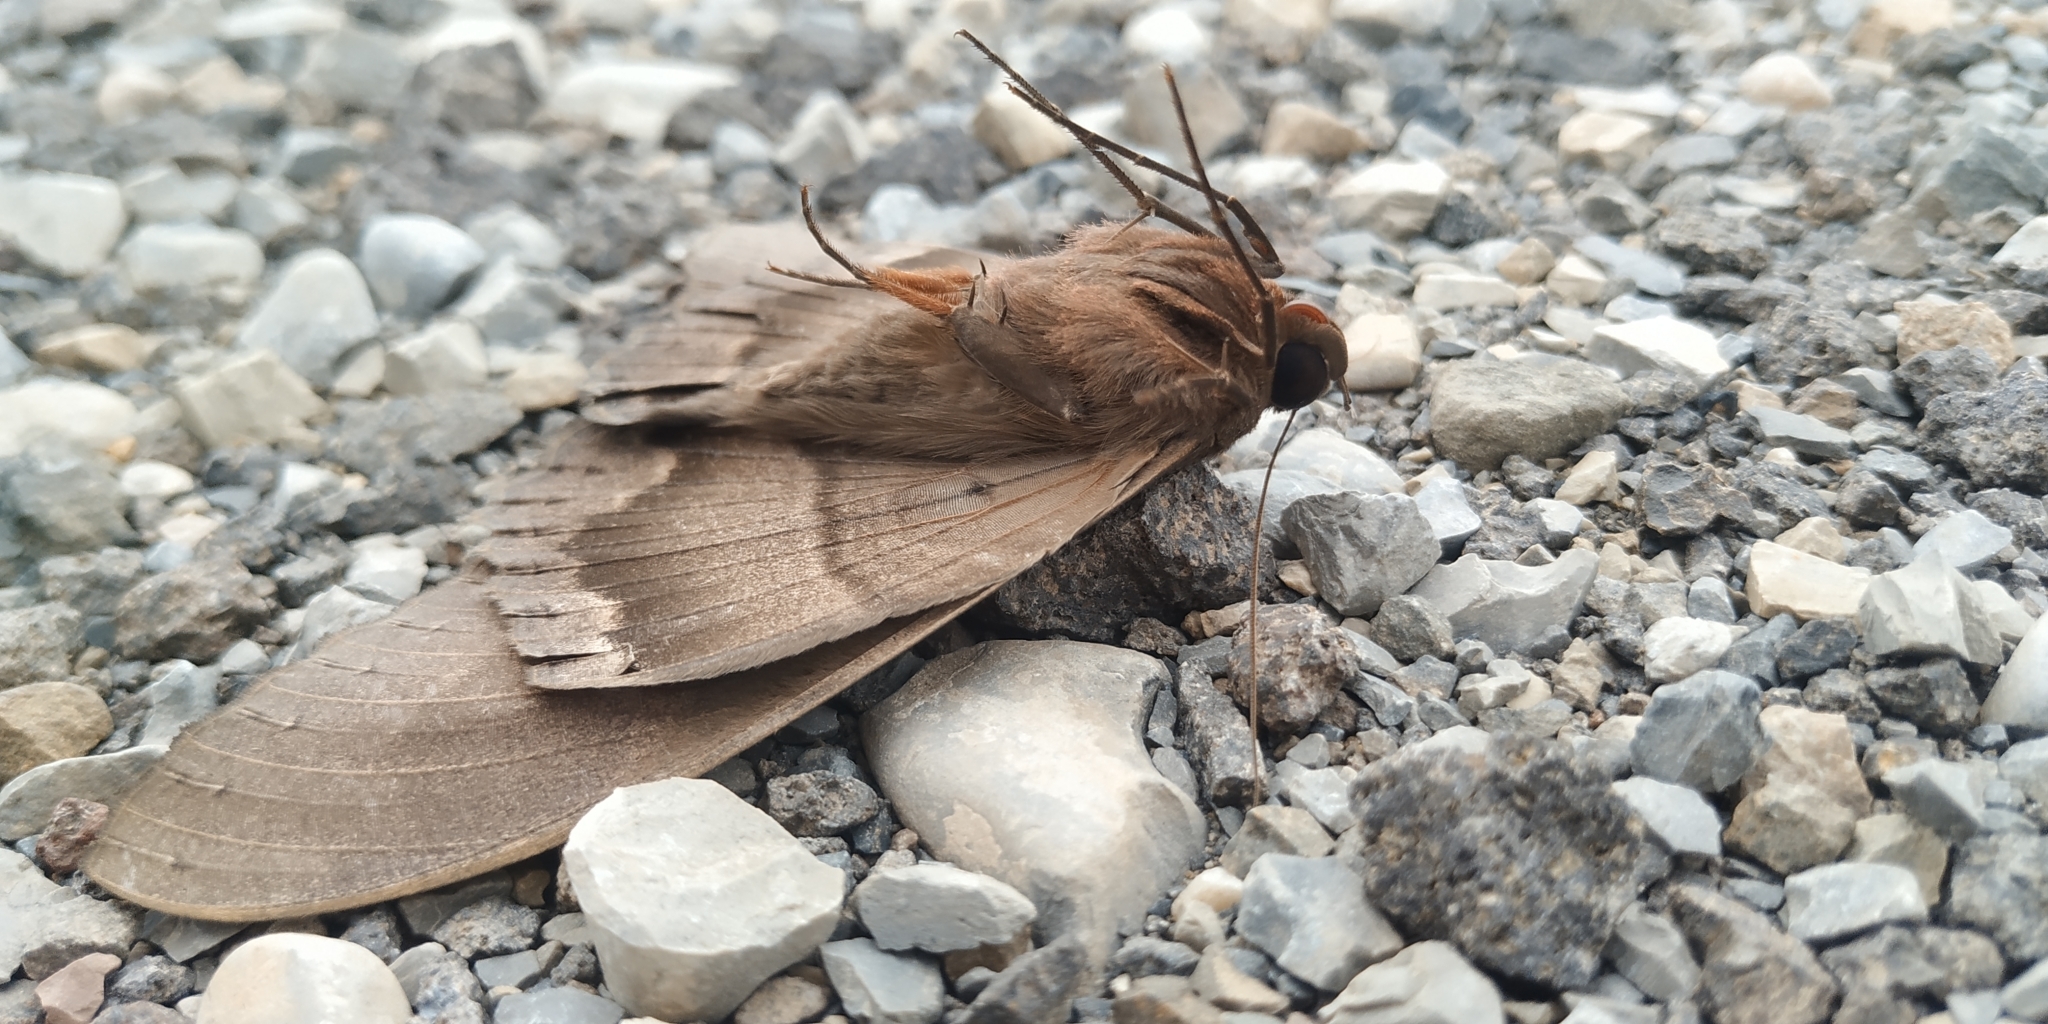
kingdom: Animalia
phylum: Arthropoda
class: Insecta
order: Lepidoptera
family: Erebidae
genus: Ascalapha
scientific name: Ascalapha odorata
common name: Black witch
